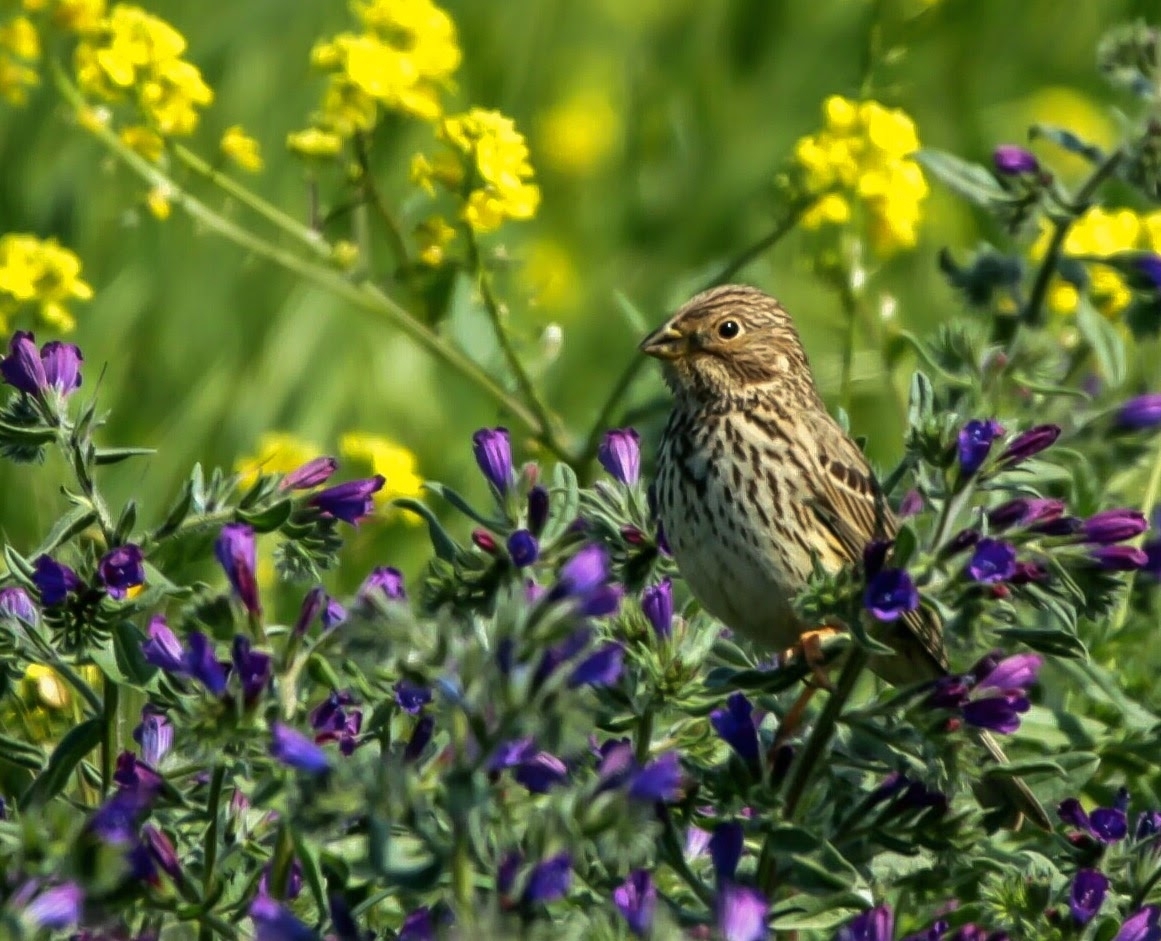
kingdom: Animalia
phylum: Chordata
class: Aves
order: Passeriformes
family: Emberizidae
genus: Emberiza
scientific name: Emberiza calandra
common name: Corn bunting
